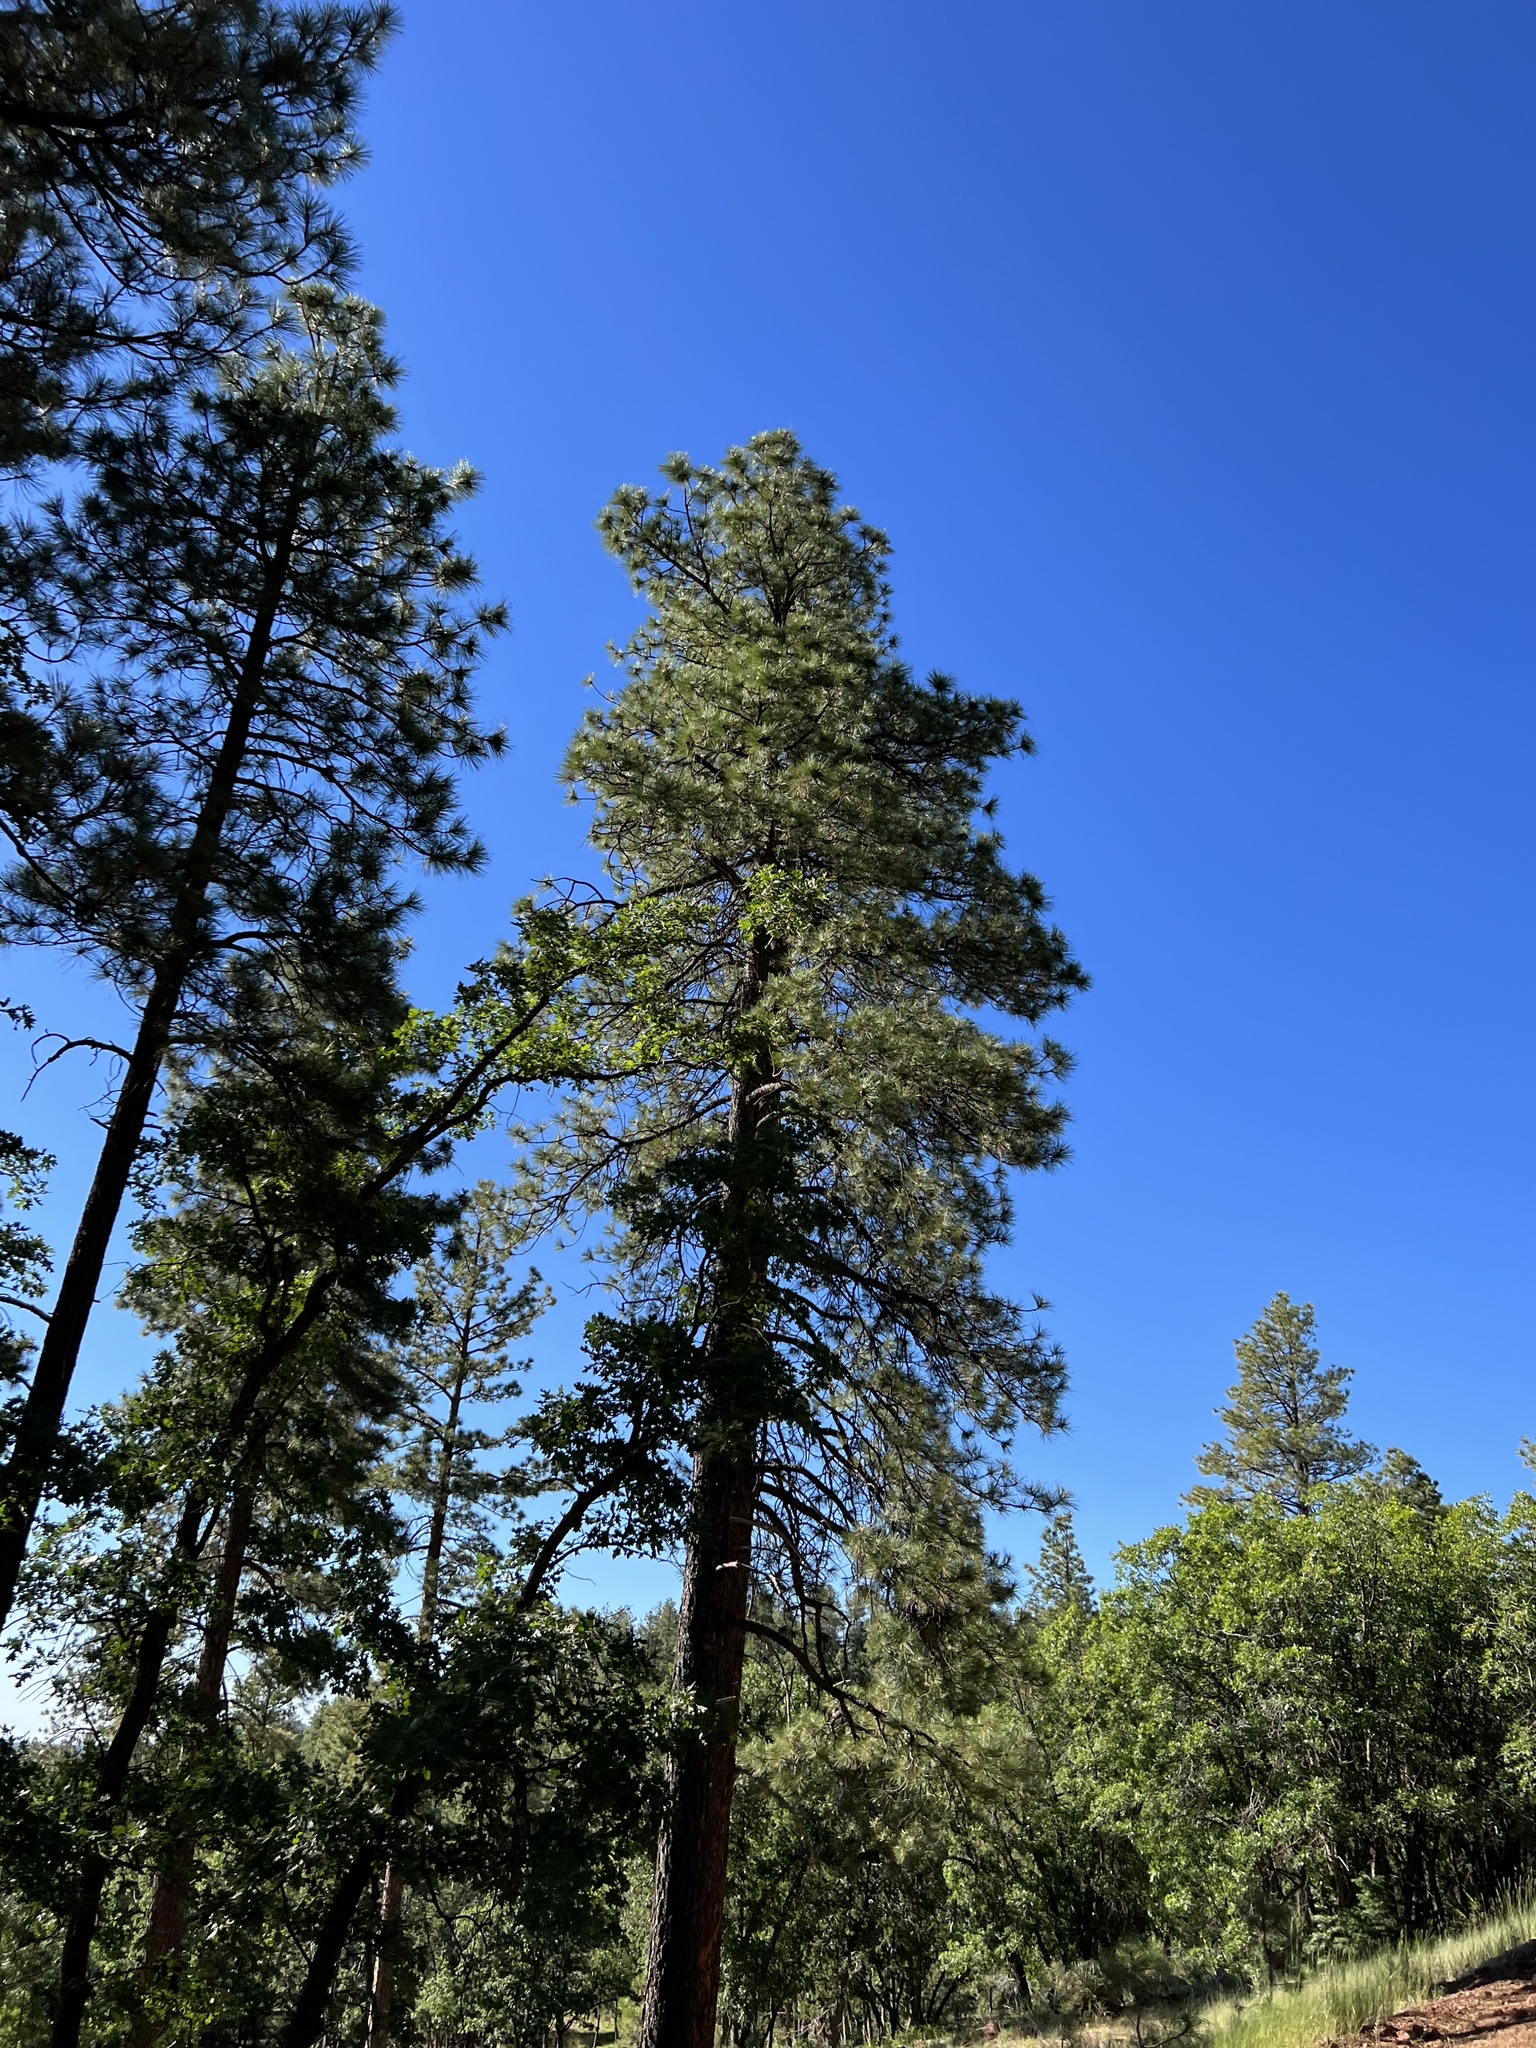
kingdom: Plantae
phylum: Tracheophyta
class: Pinopsida
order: Pinales
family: Pinaceae
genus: Pinus
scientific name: Pinus ponderosa
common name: Western yellow-pine
